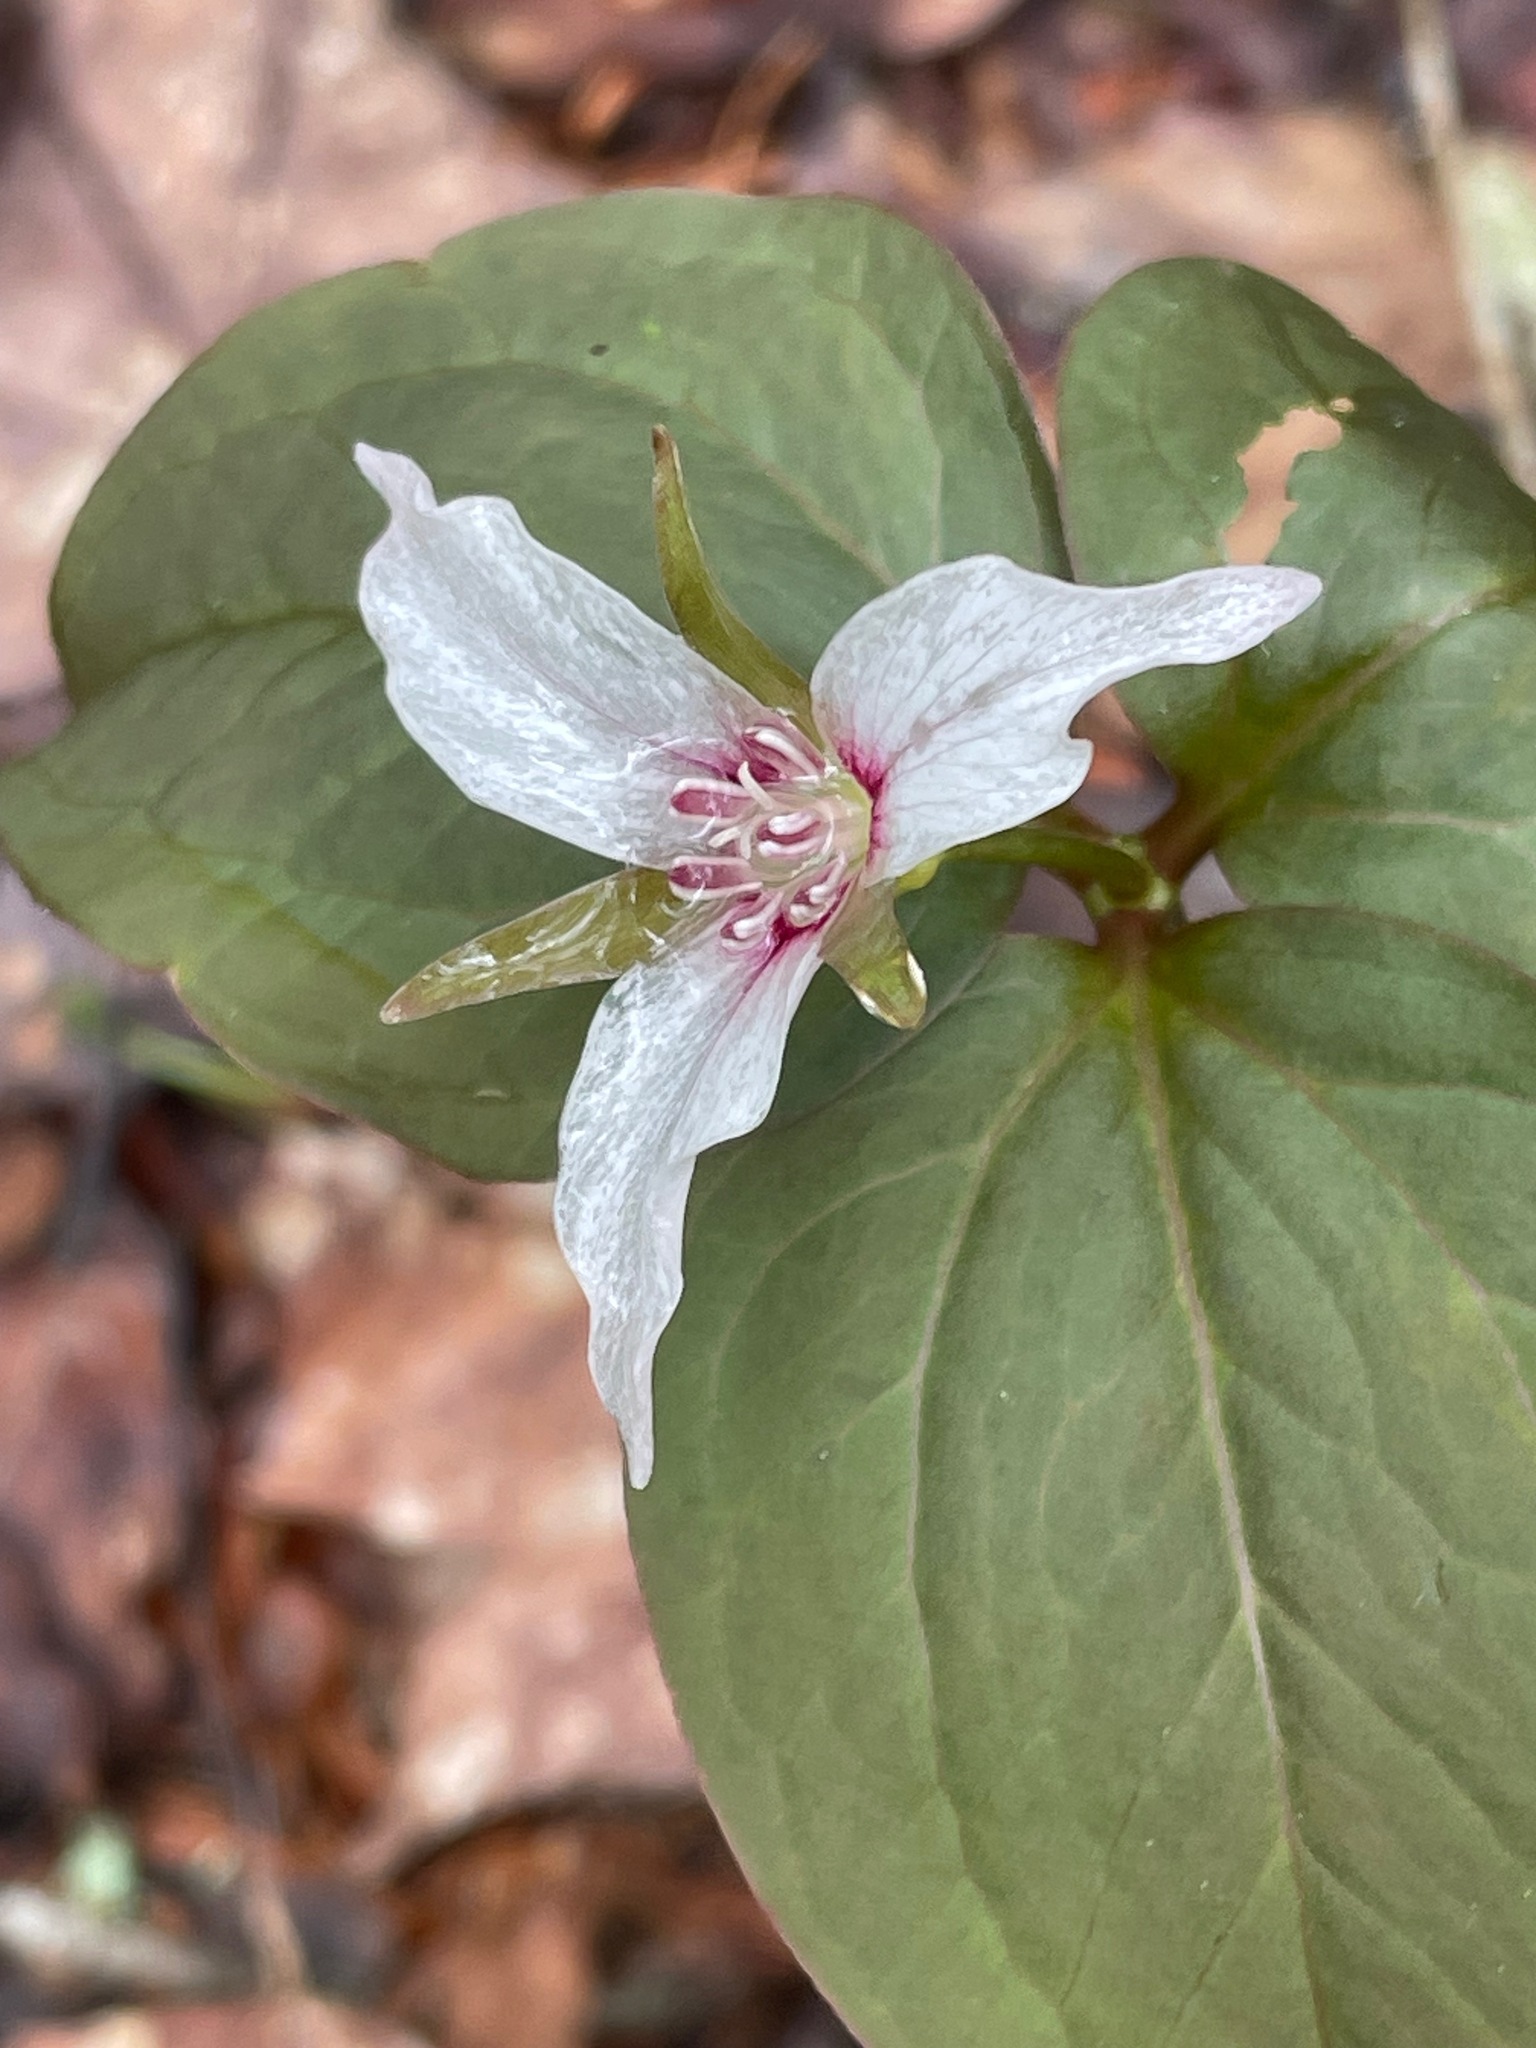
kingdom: Plantae
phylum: Tracheophyta
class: Liliopsida
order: Liliales
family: Melanthiaceae
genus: Trillium
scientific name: Trillium undulatum
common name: Paint trillium
